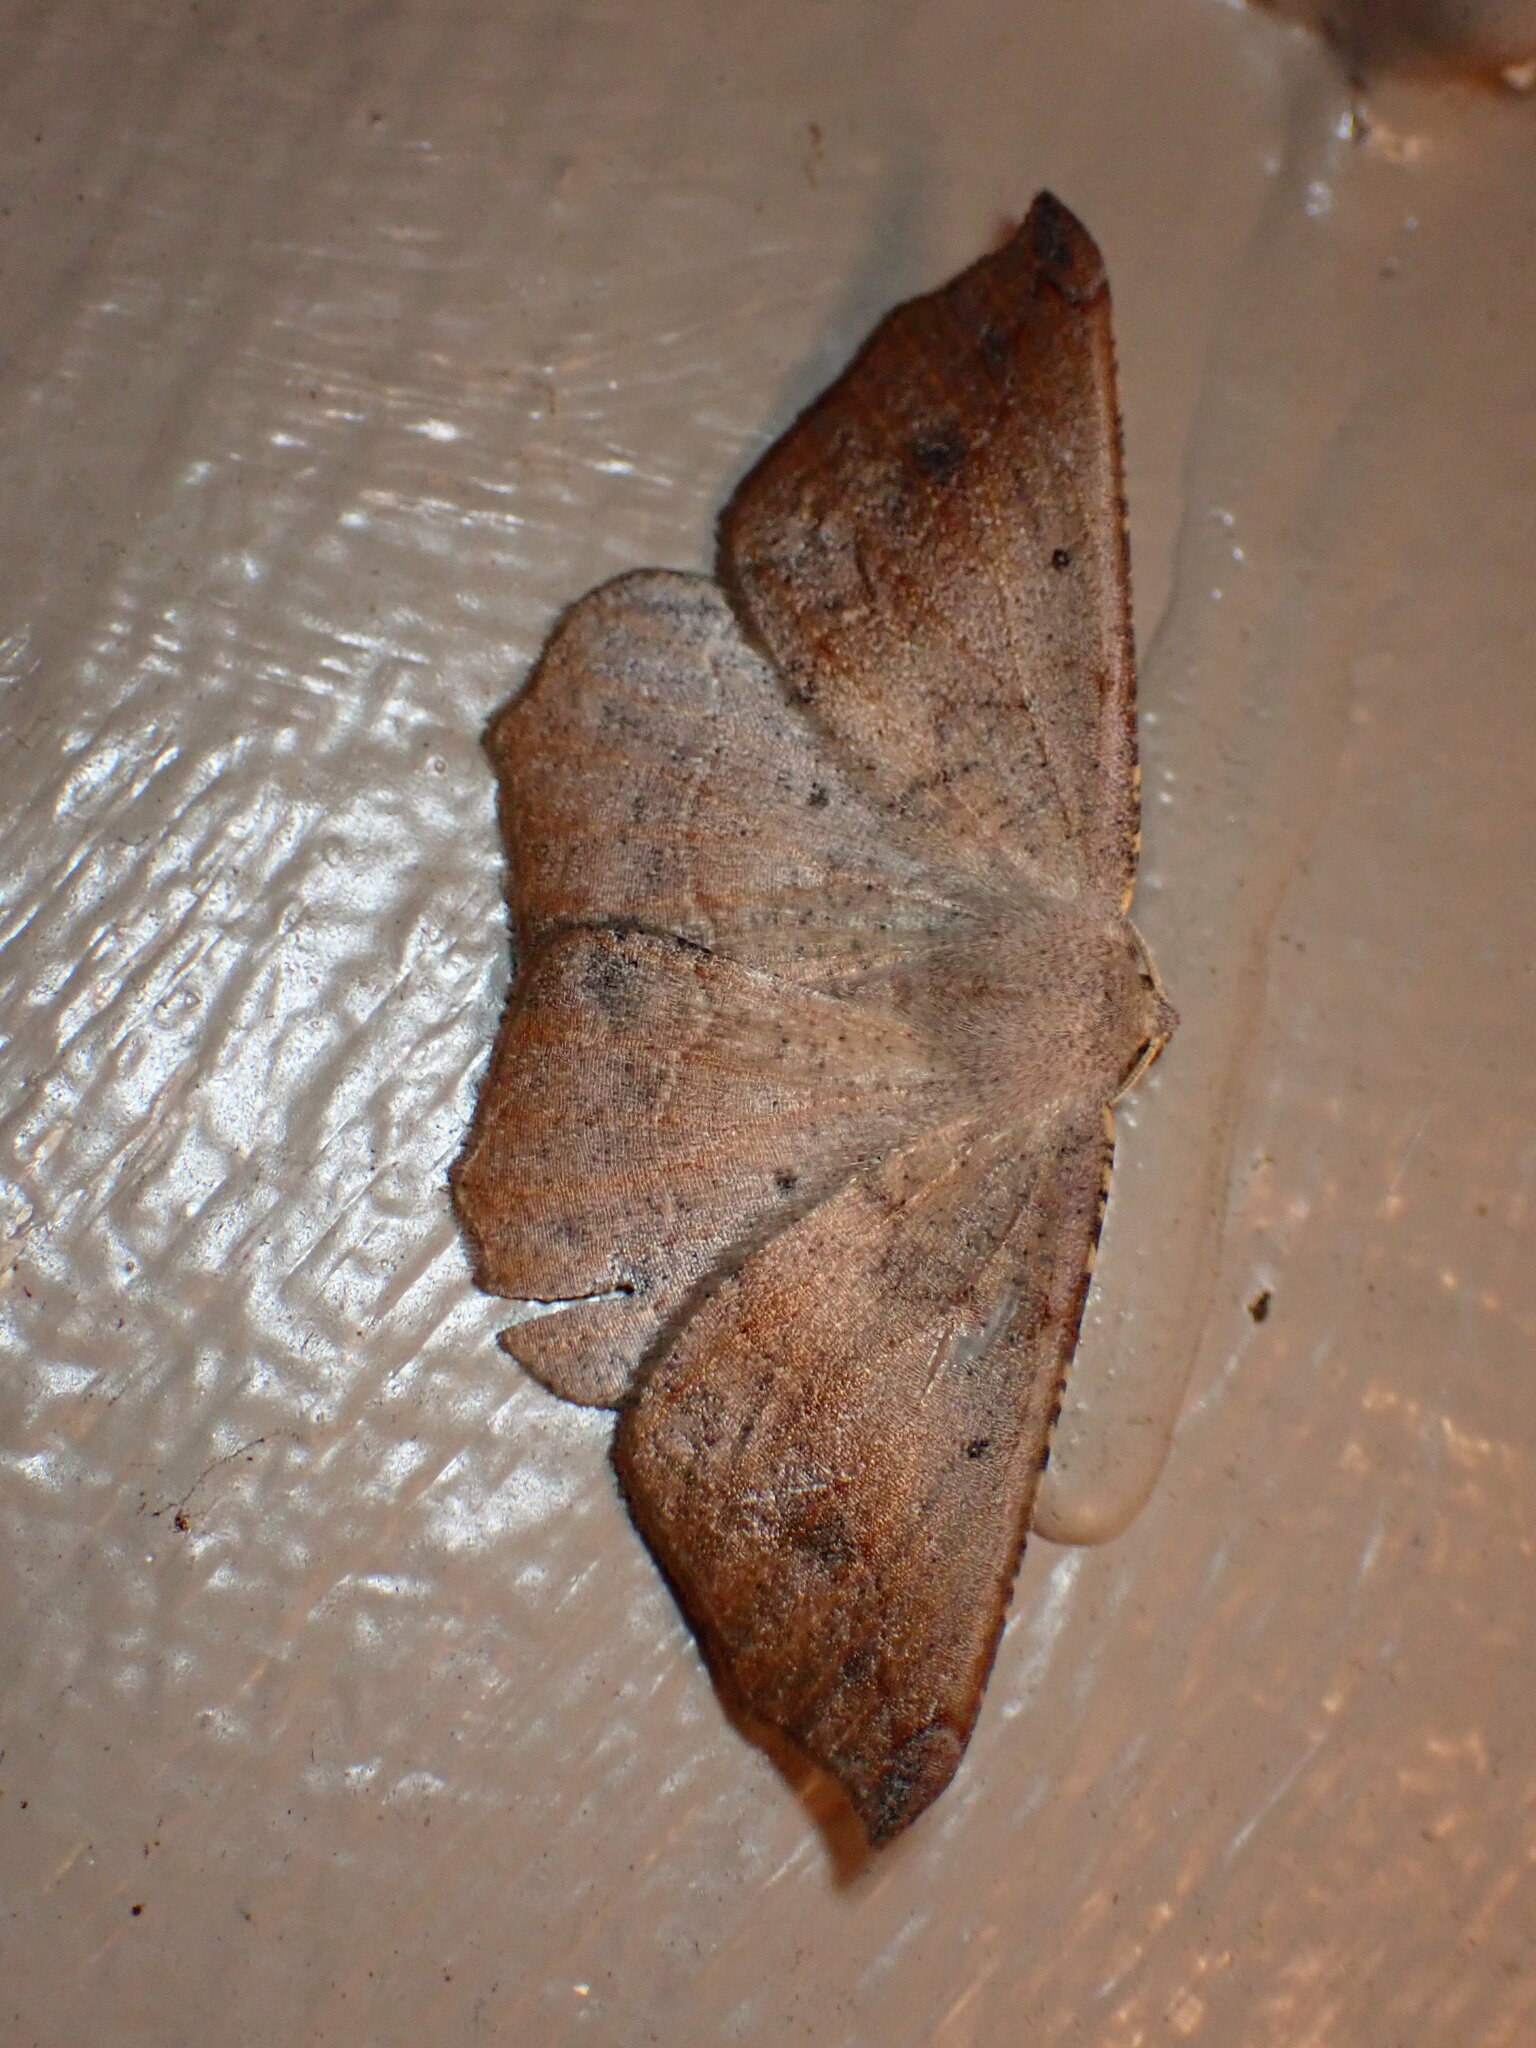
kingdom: Animalia
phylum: Arthropoda
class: Insecta
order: Lepidoptera
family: Geometridae
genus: Prochoerodes
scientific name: Prochoerodes forficaria
